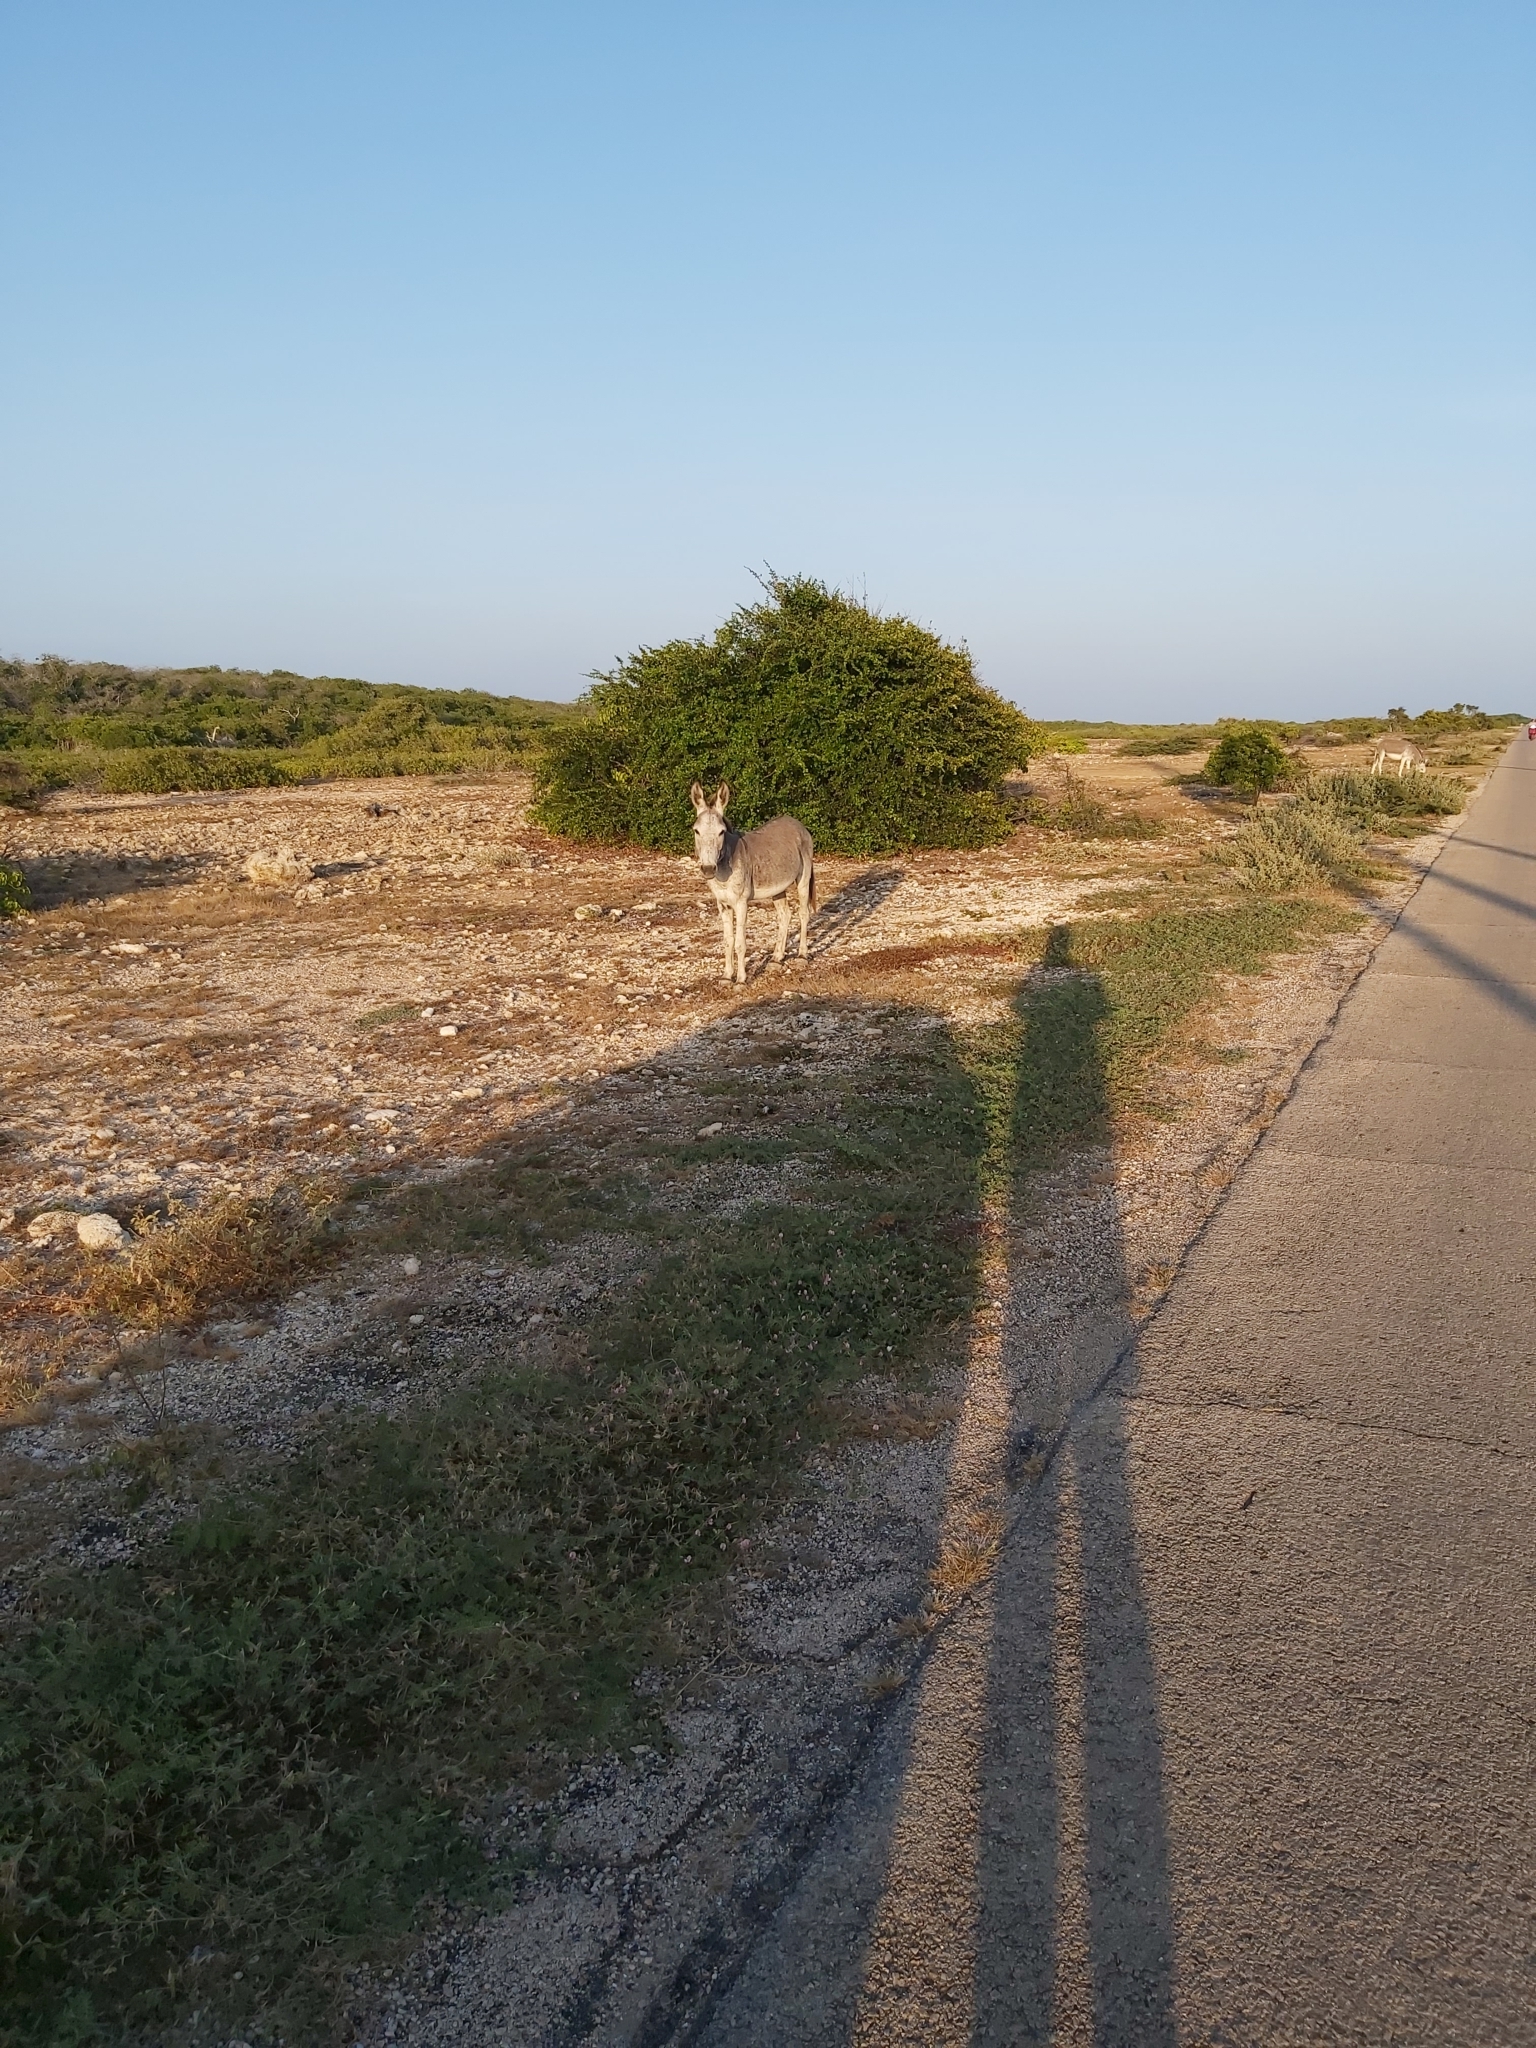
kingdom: Animalia
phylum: Chordata
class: Mammalia
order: Perissodactyla
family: Equidae
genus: Equus
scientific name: Equus asinus
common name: Ass
